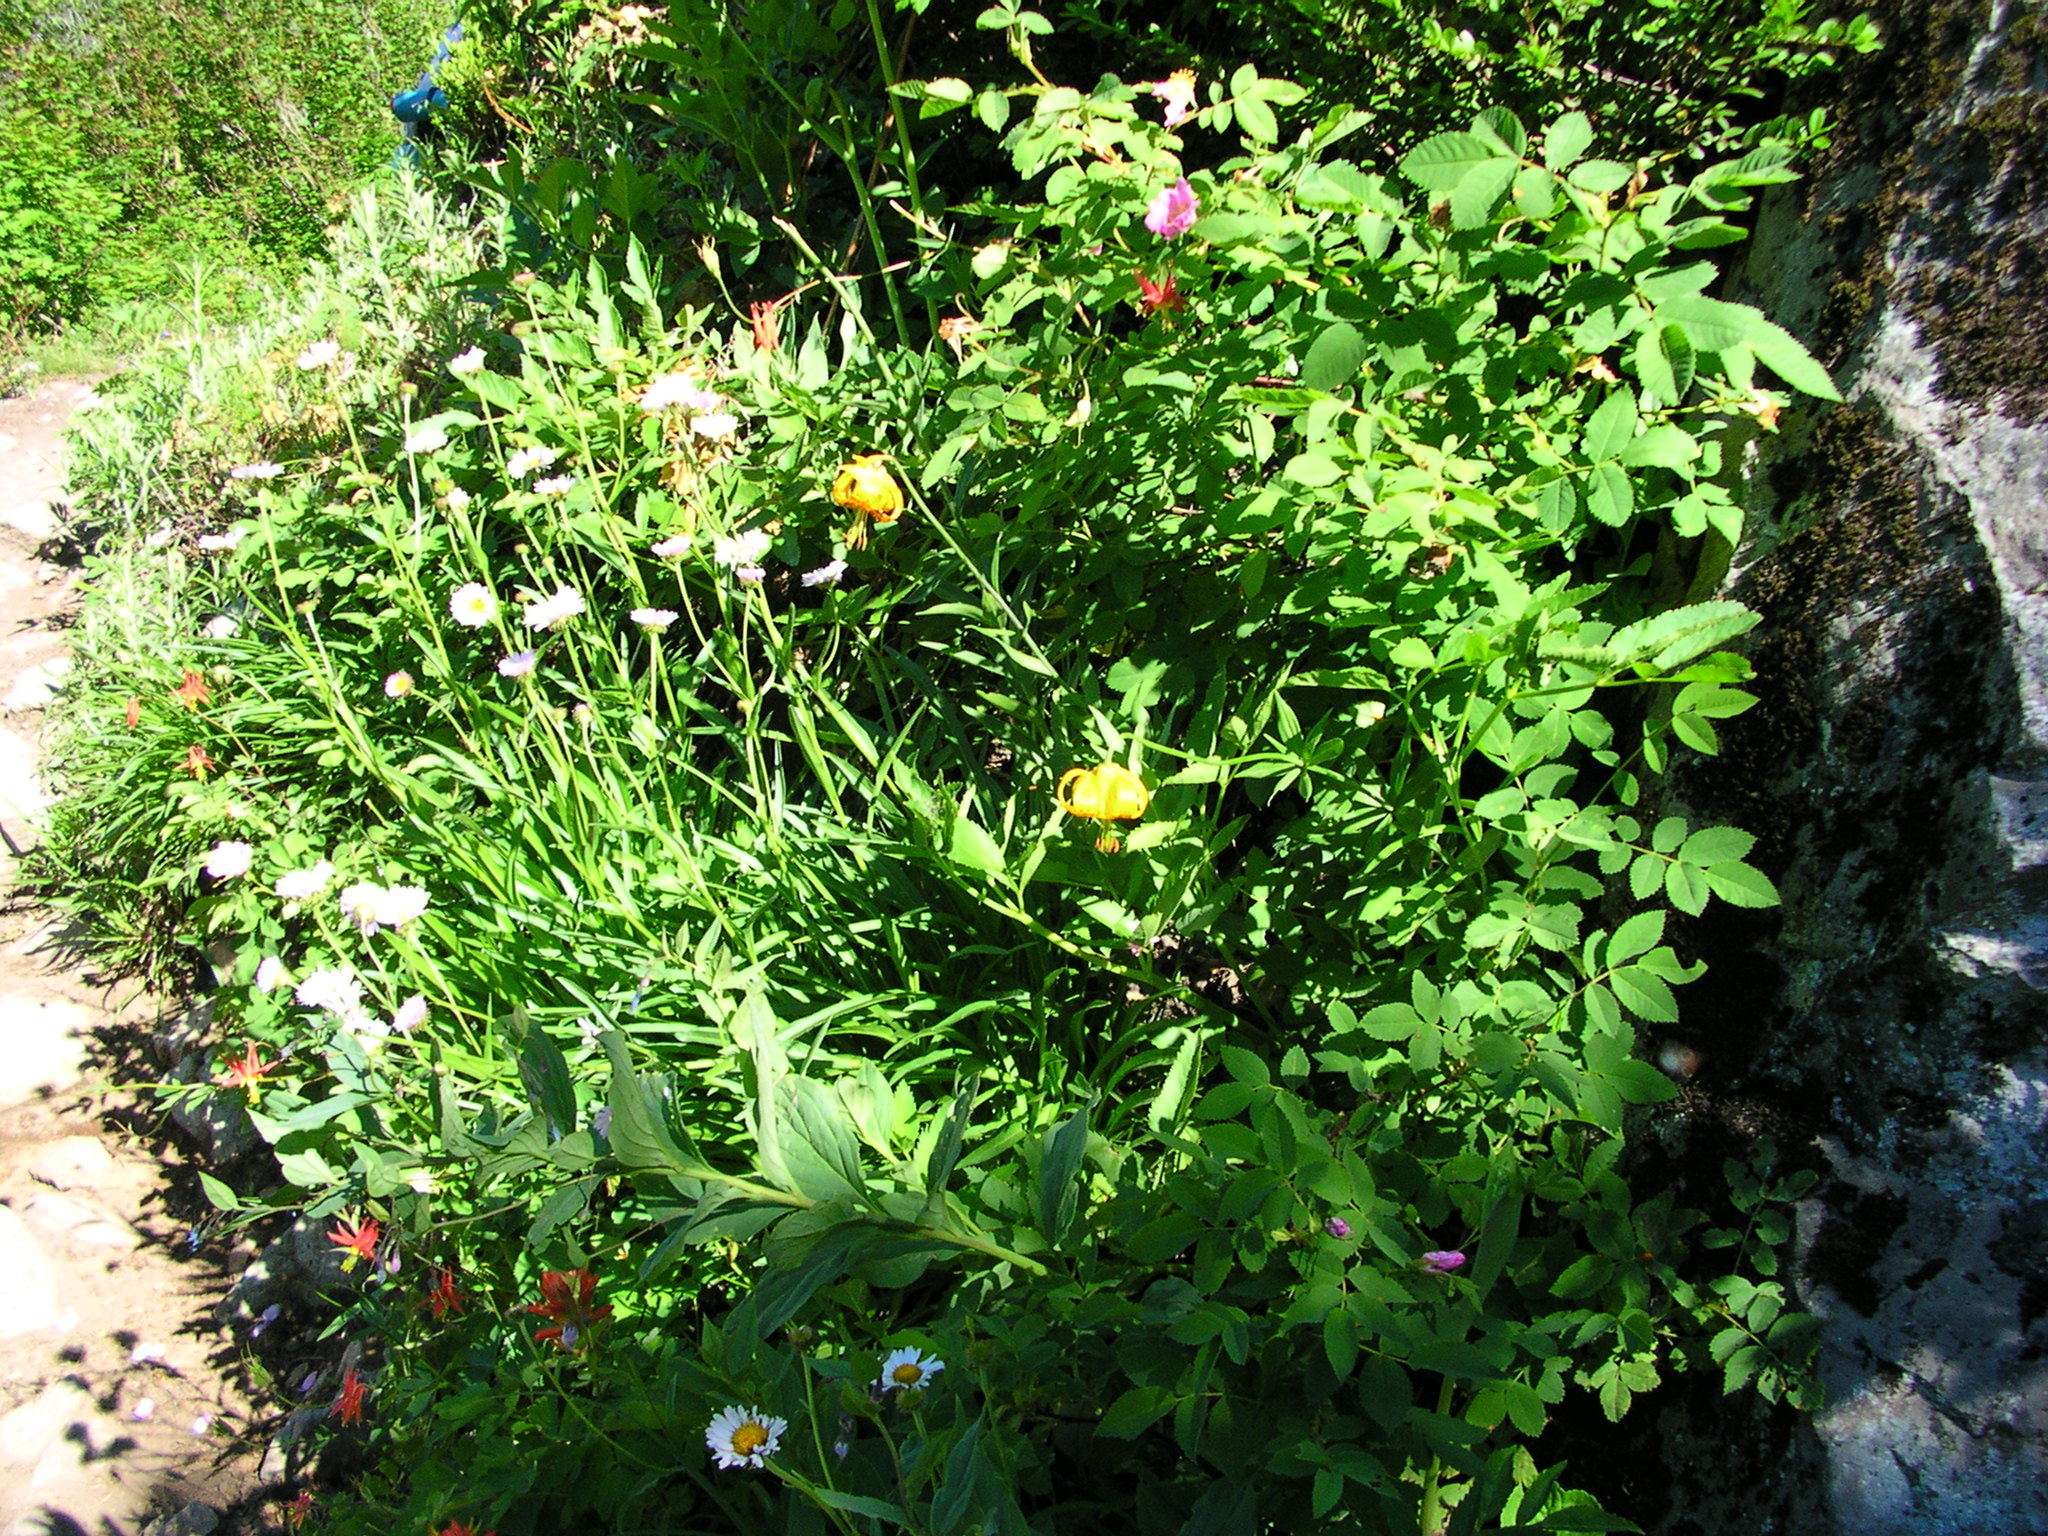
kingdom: Plantae
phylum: Tracheophyta
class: Liliopsida
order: Liliales
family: Liliaceae
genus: Lilium
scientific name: Lilium columbianum
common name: Columbia lily
